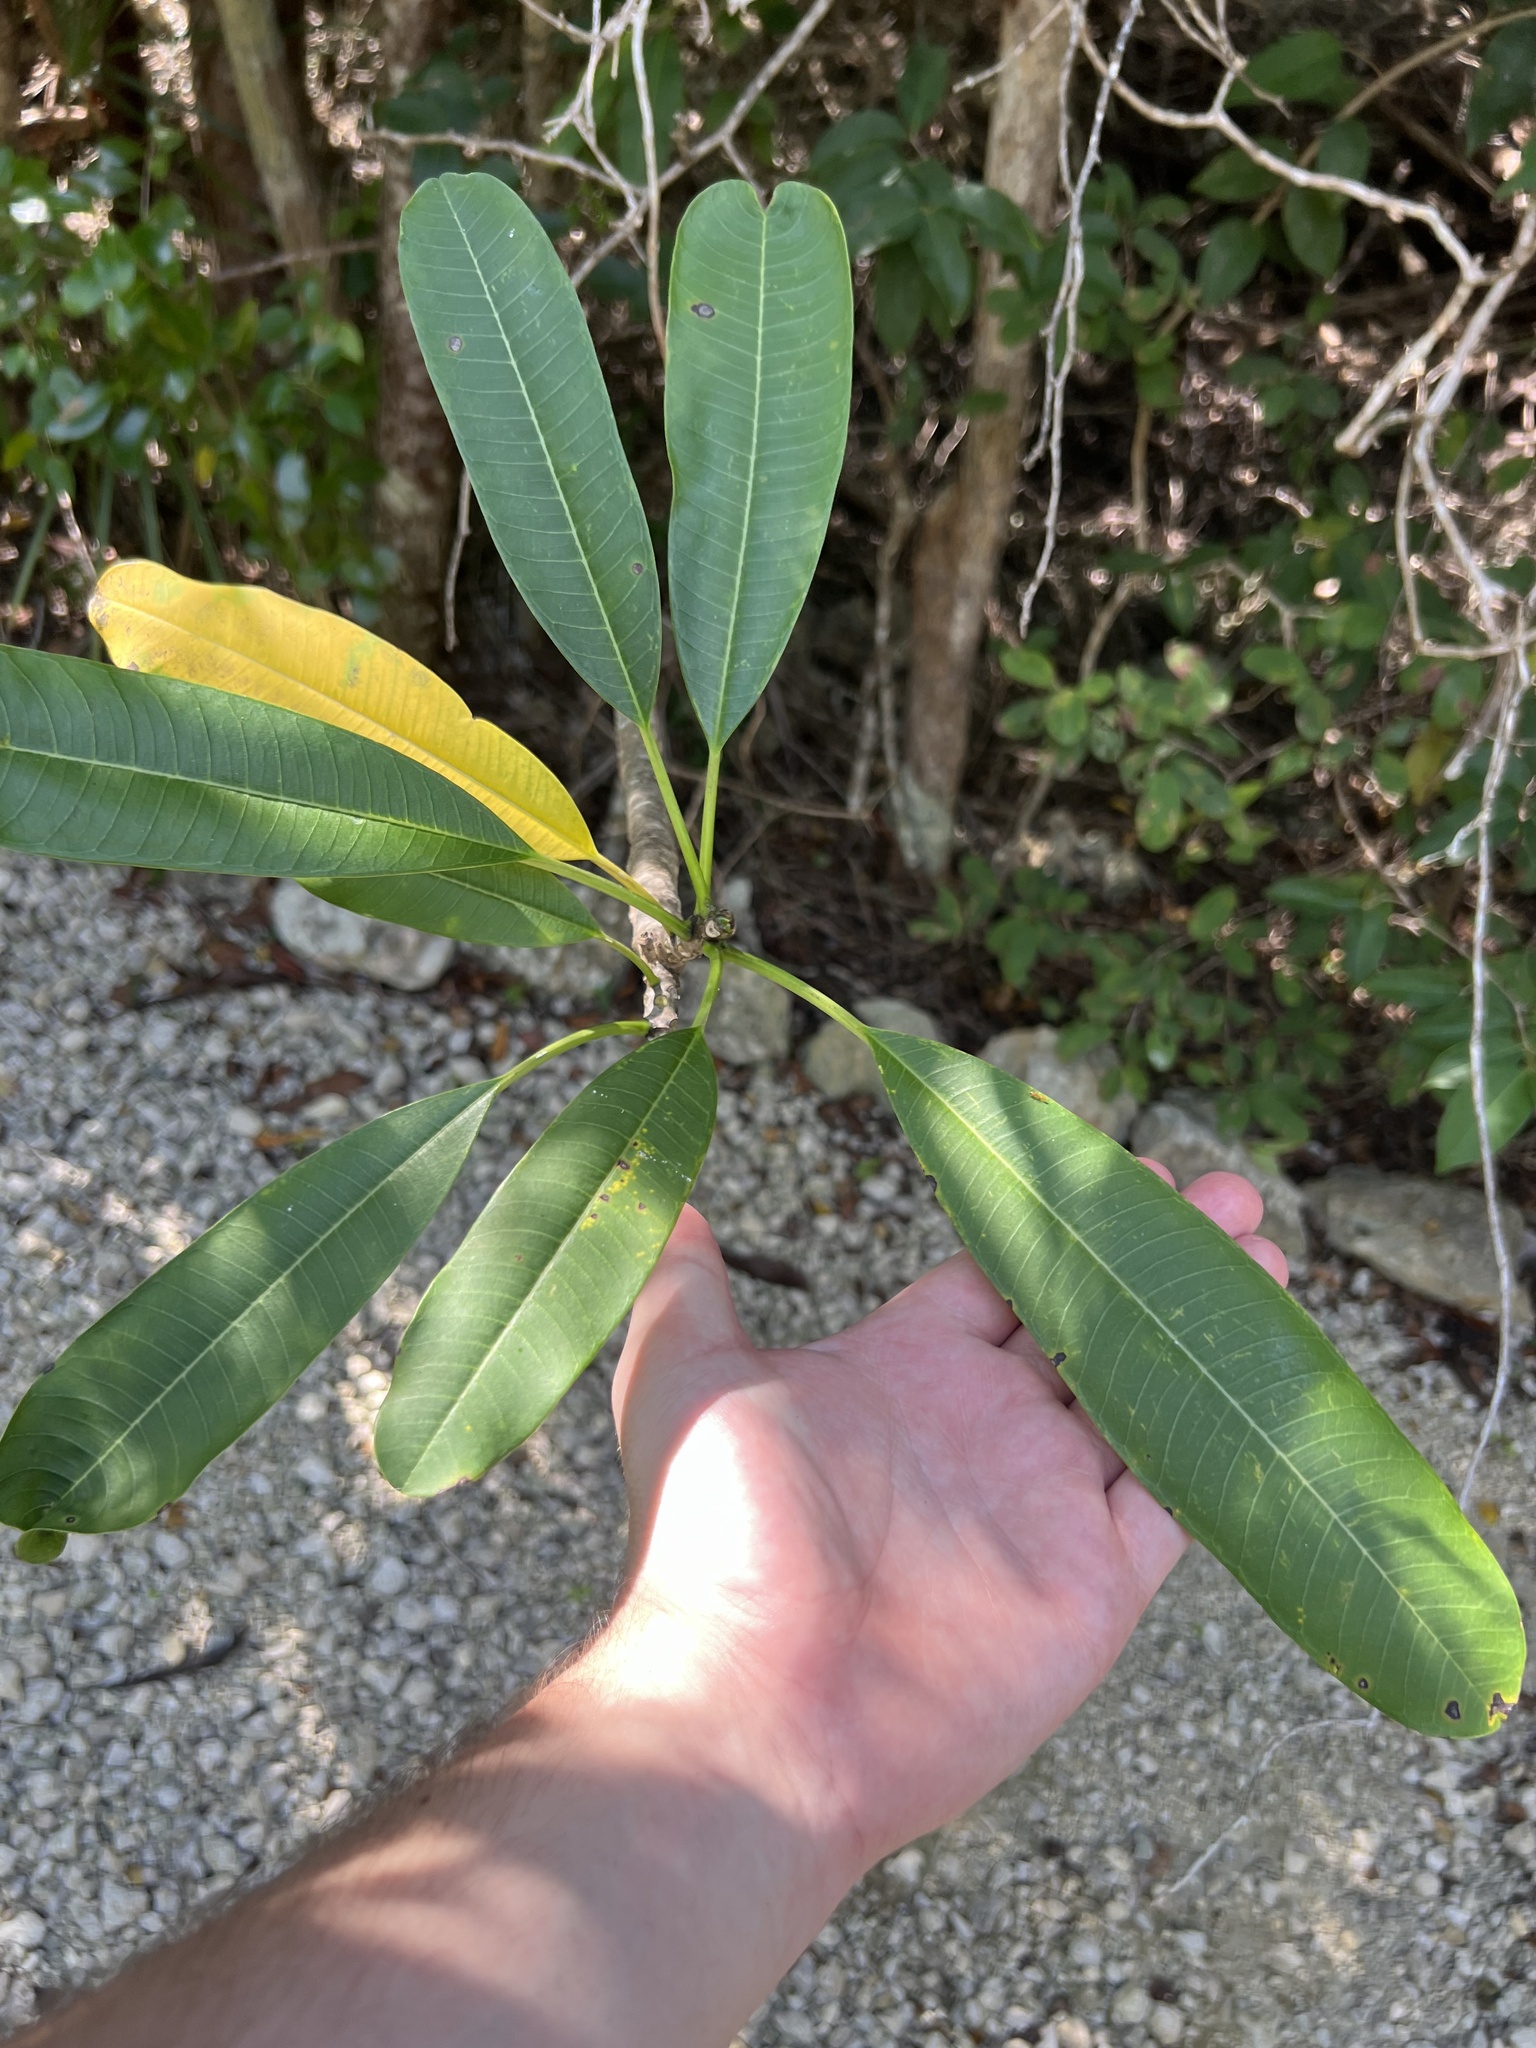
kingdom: Plantae
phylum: Tracheophyta
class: Magnoliopsida
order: Gentianales
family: Apocynaceae
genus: Plumeria
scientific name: Plumeria obtusa
